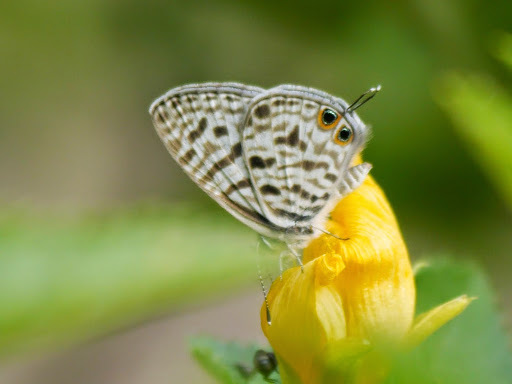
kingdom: Animalia
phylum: Arthropoda
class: Insecta
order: Lepidoptera
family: Lycaenidae
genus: Leptotes
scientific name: Leptotes
